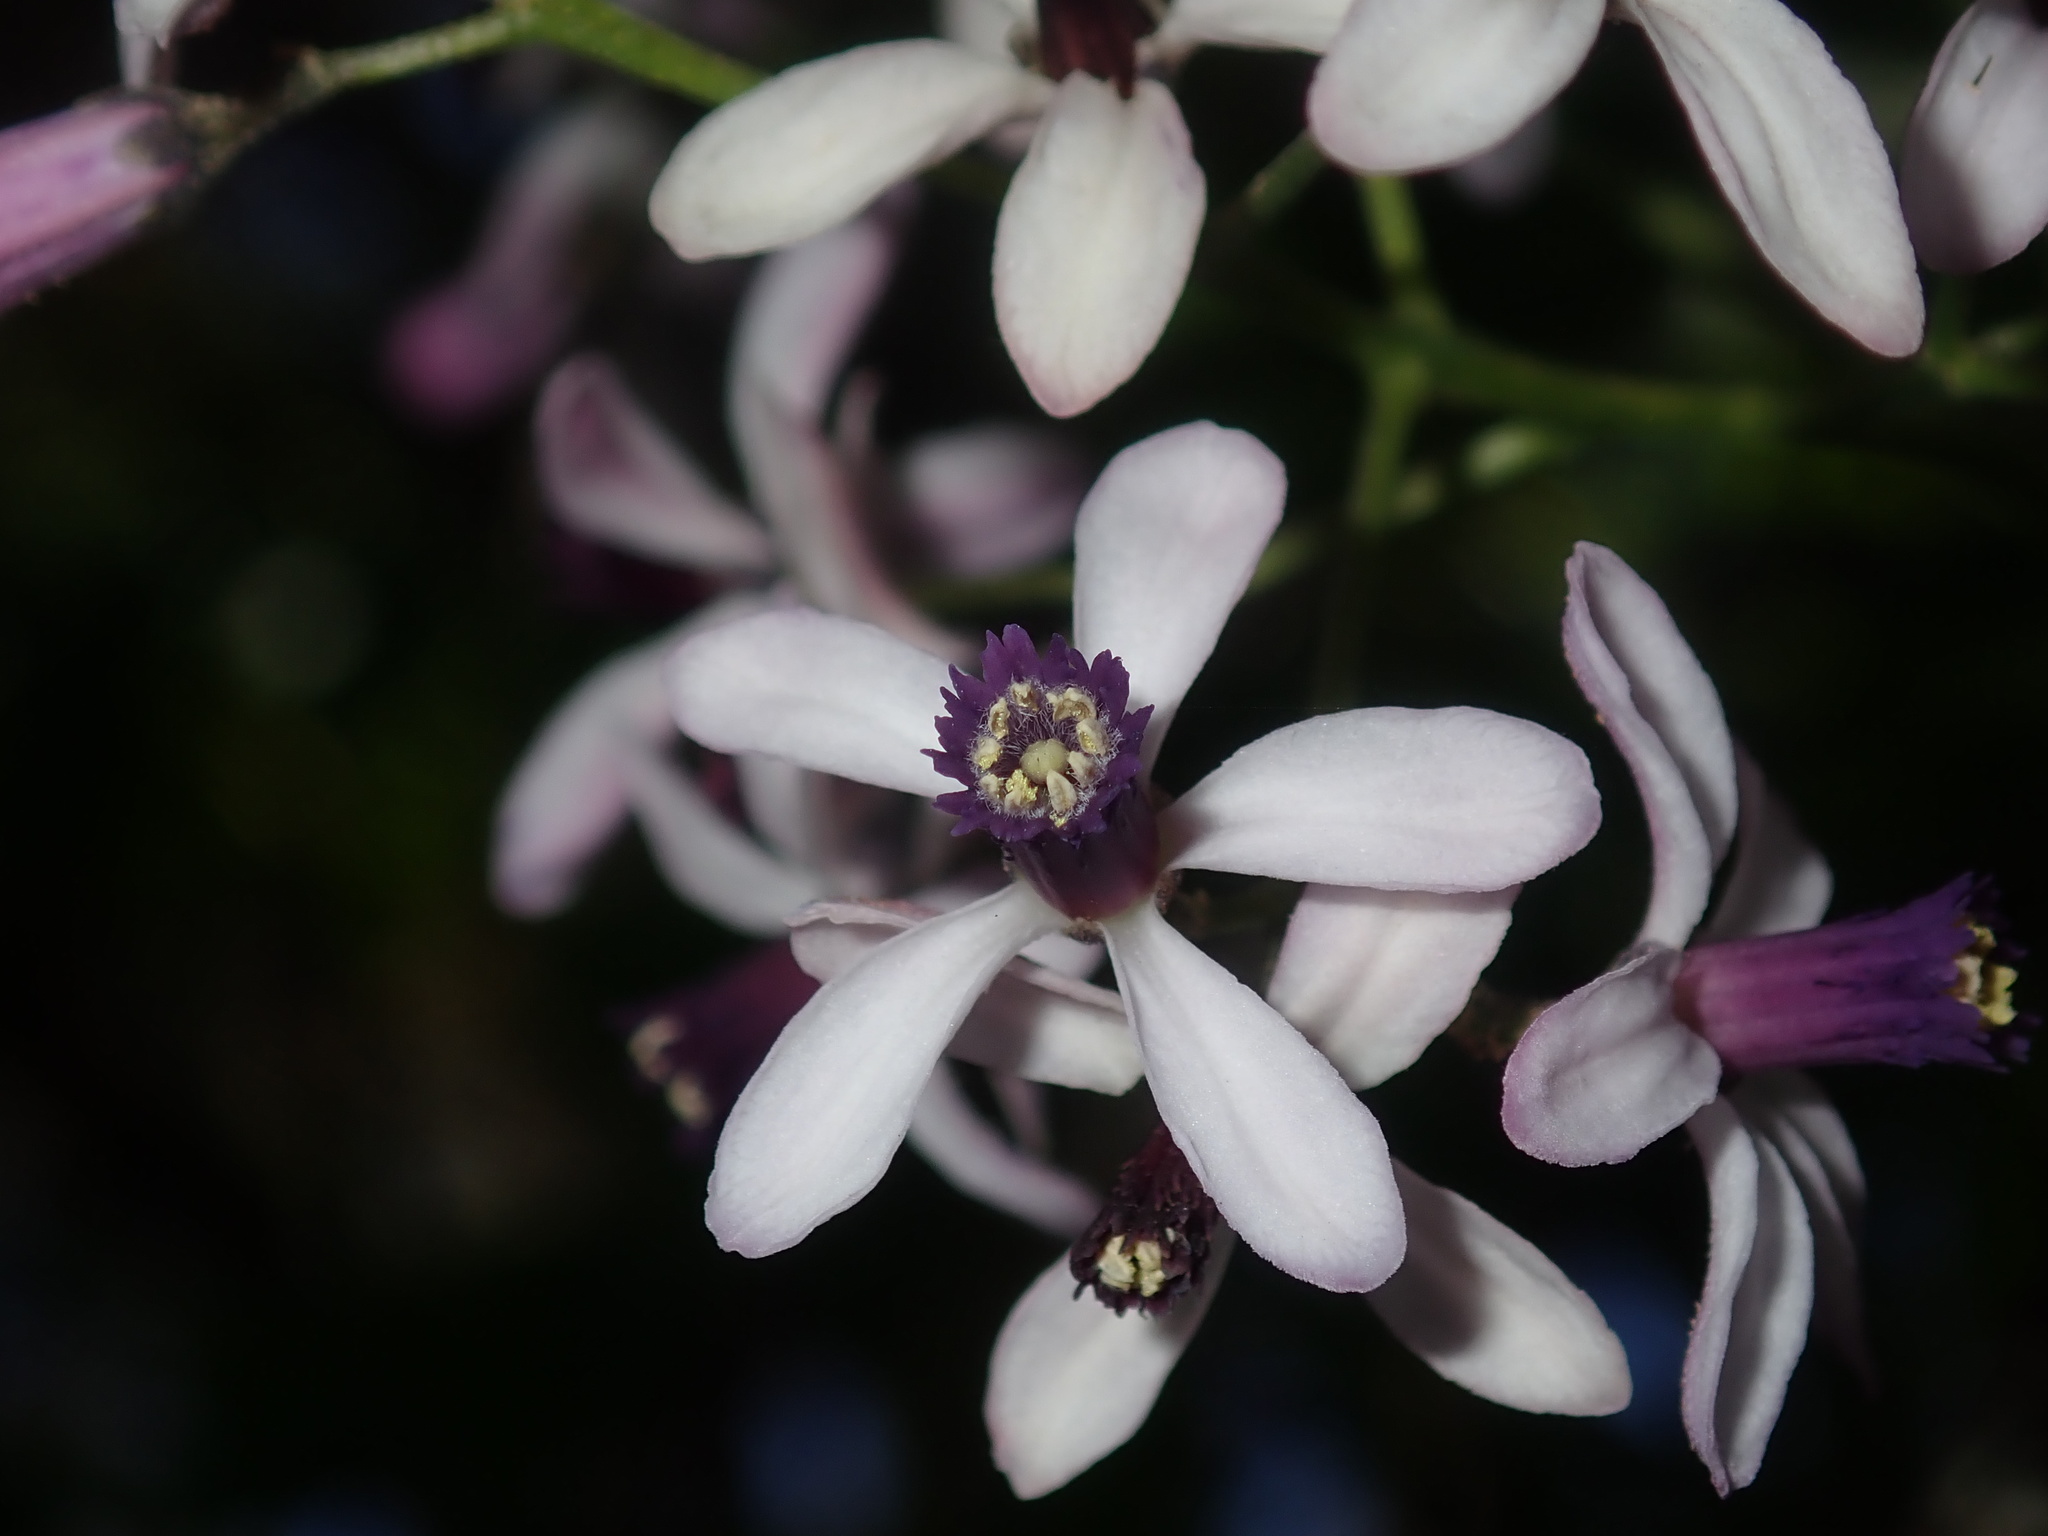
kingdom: Plantae
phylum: Tracheophyta
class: Magnoliopsida
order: Sapindales
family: Meliaceae
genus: Melia
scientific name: Melia azedarach
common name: Chinaberrytree
